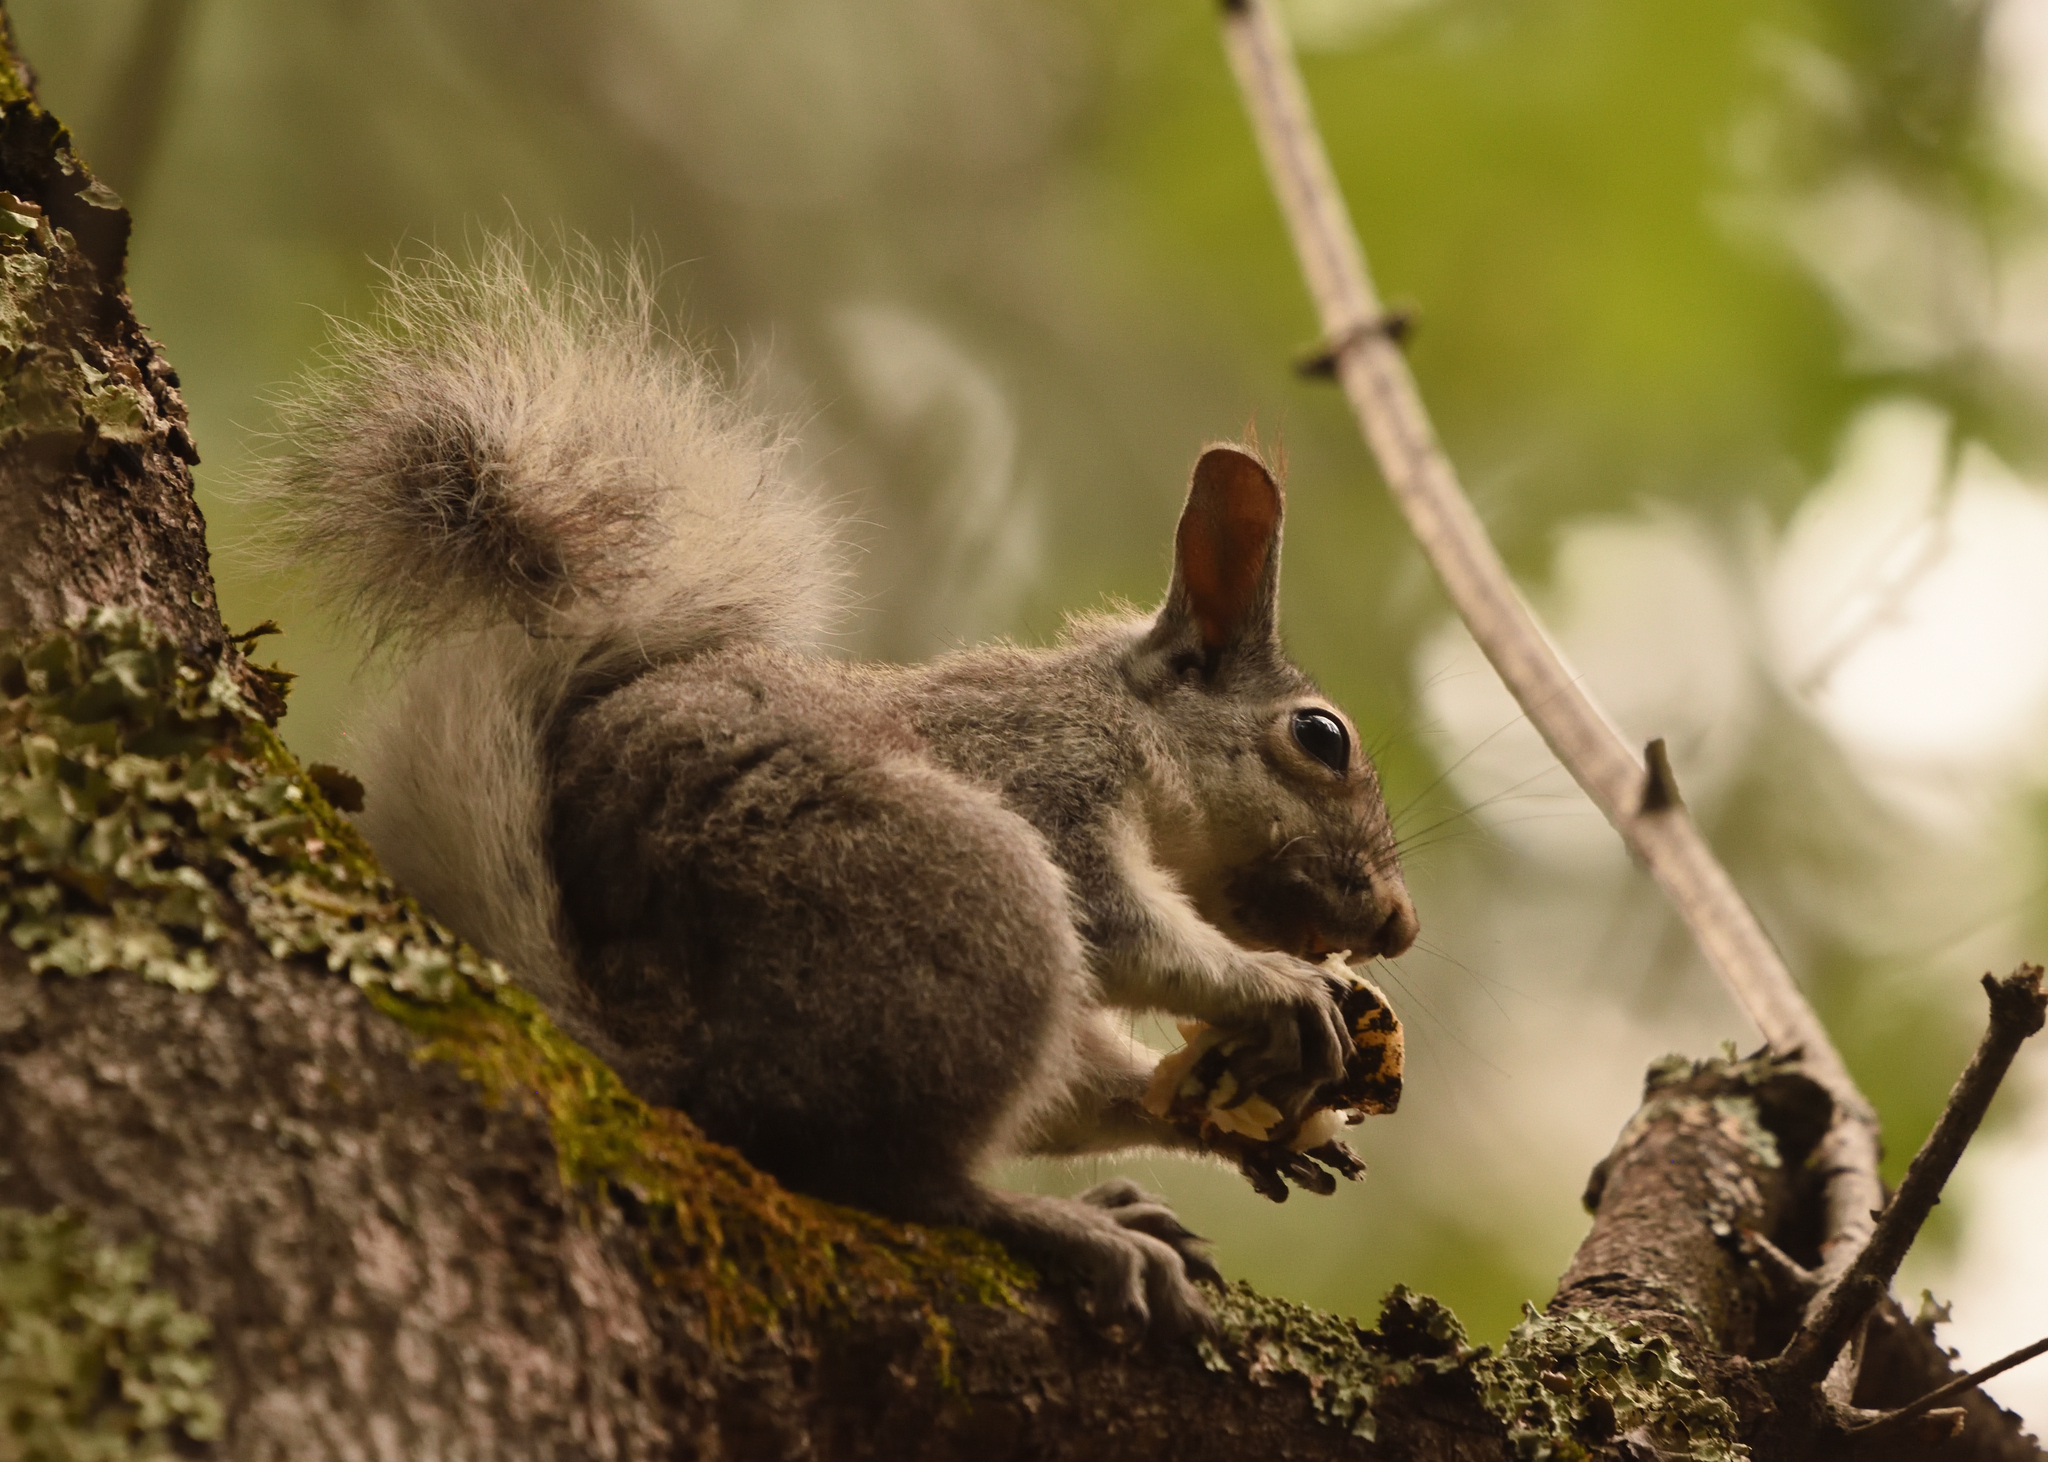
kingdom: Animalia
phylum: Chordata
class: Mammalia
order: Rodentia
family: Sciuridae
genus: Sciurus
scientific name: Sciurus aberti
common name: Abert's squirrel
